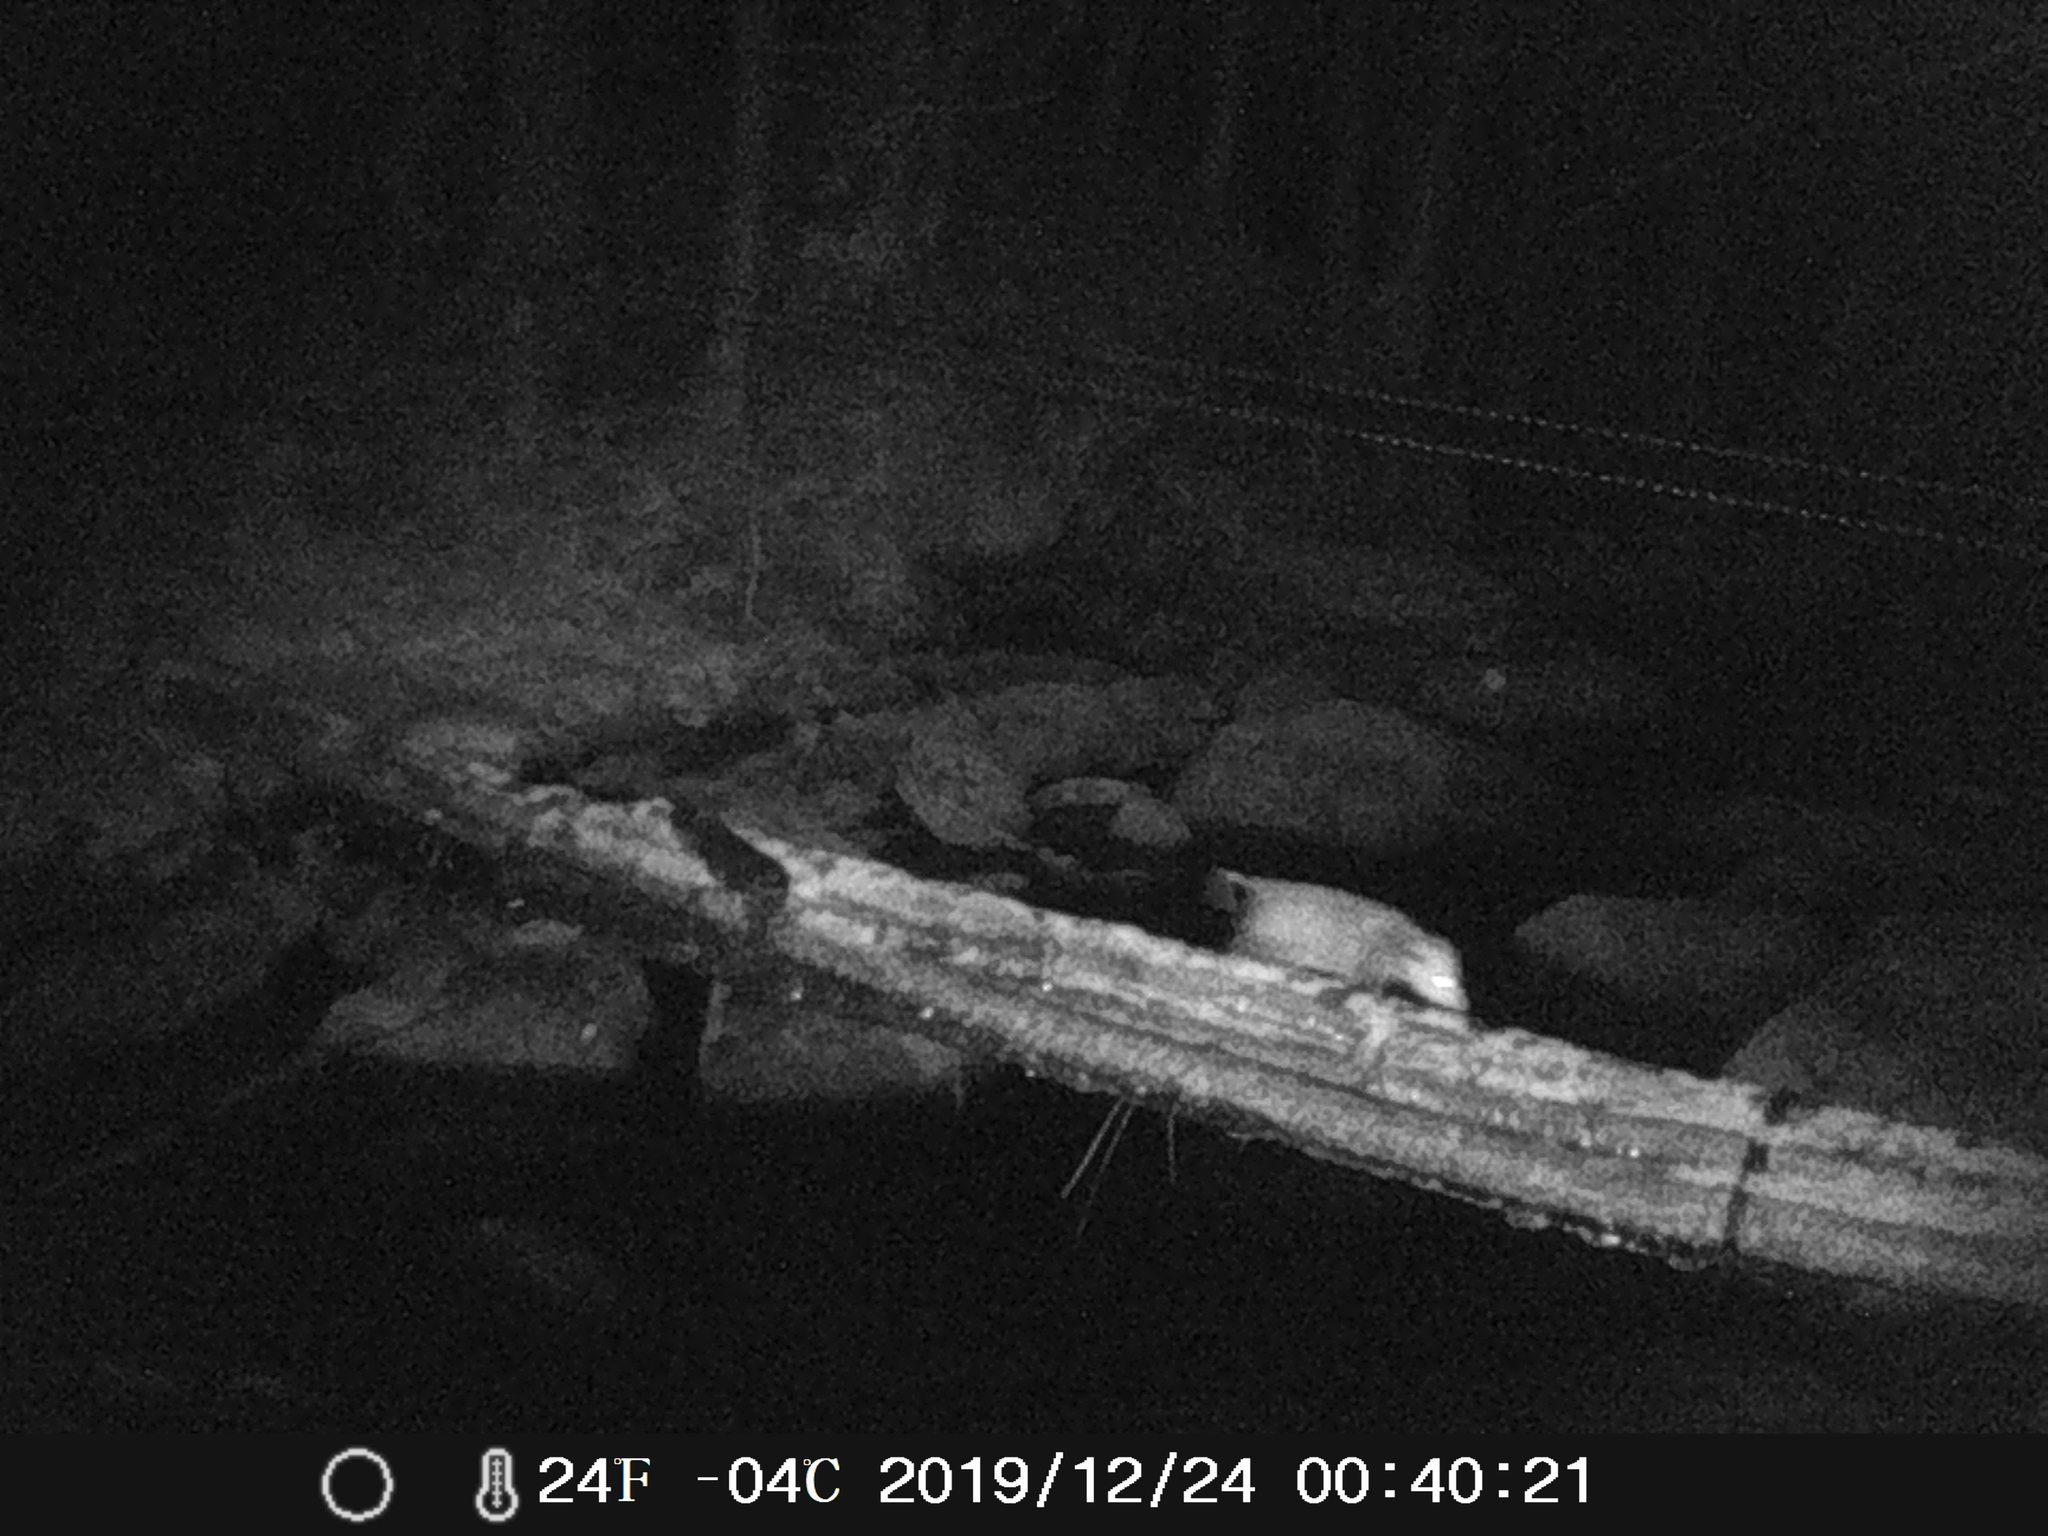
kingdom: Animalia
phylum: Chordata
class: Mammalia
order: Didelphimorphia
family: Didelphidae
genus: Didelphis
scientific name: Didelphis virginiana
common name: Virginia opossum
